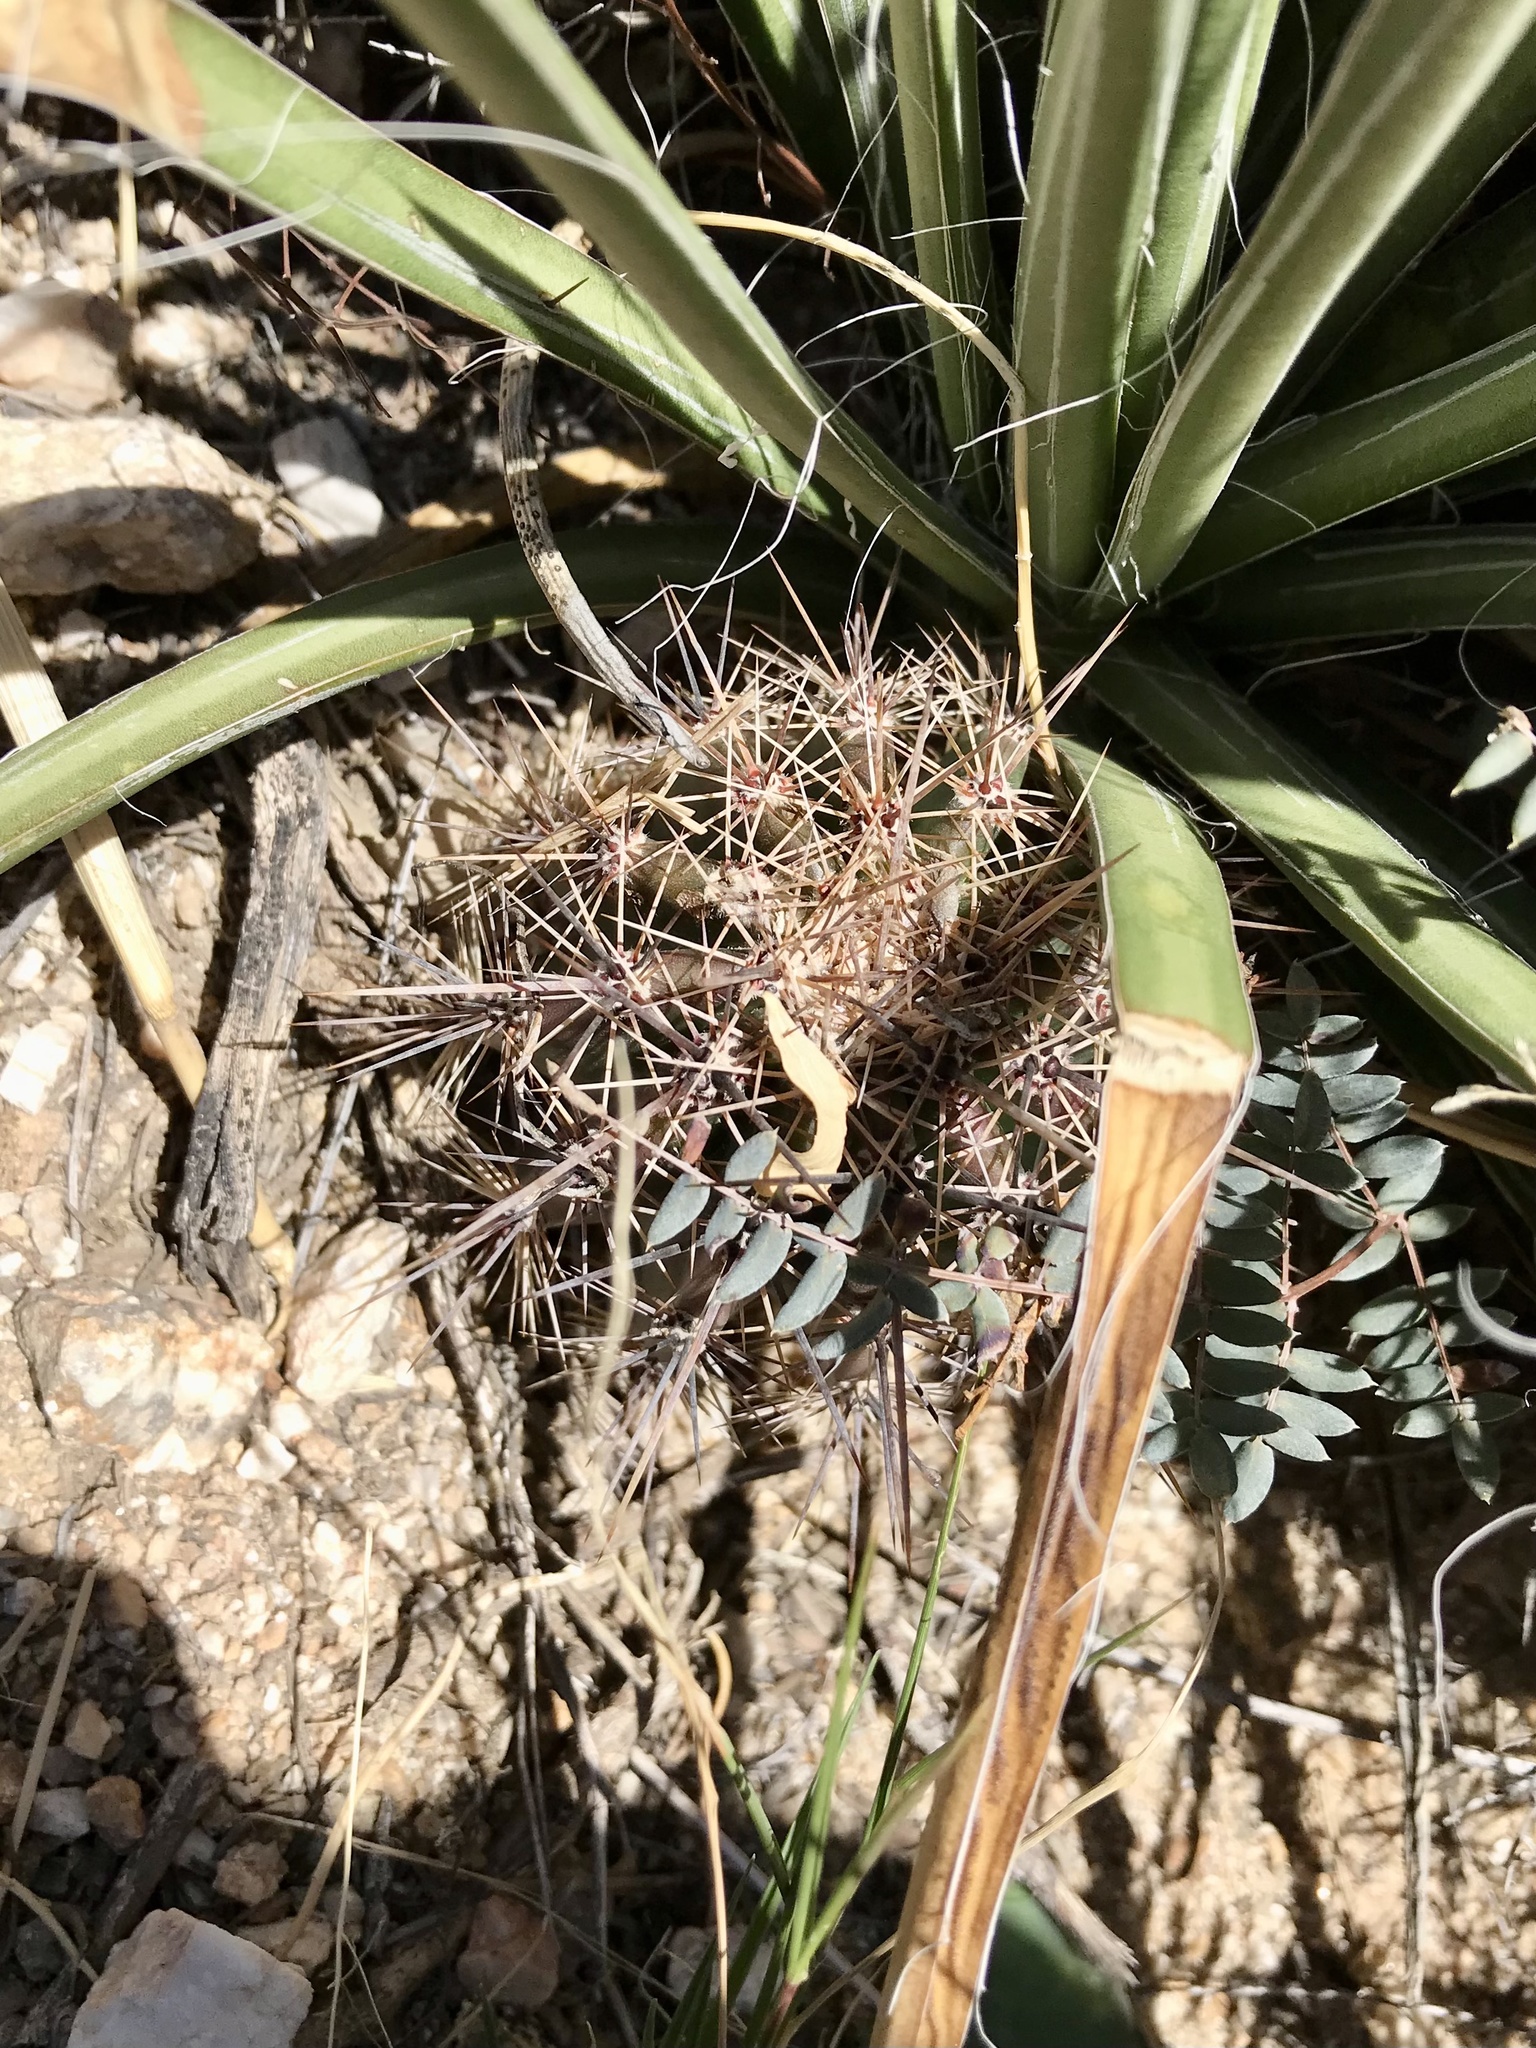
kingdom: Plantae
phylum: Tracheophyta
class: Magnoliopsida
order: Caryophyllales
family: Cactaceae
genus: Carnegiea
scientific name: Carnegiea gigantea
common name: Saguaro
